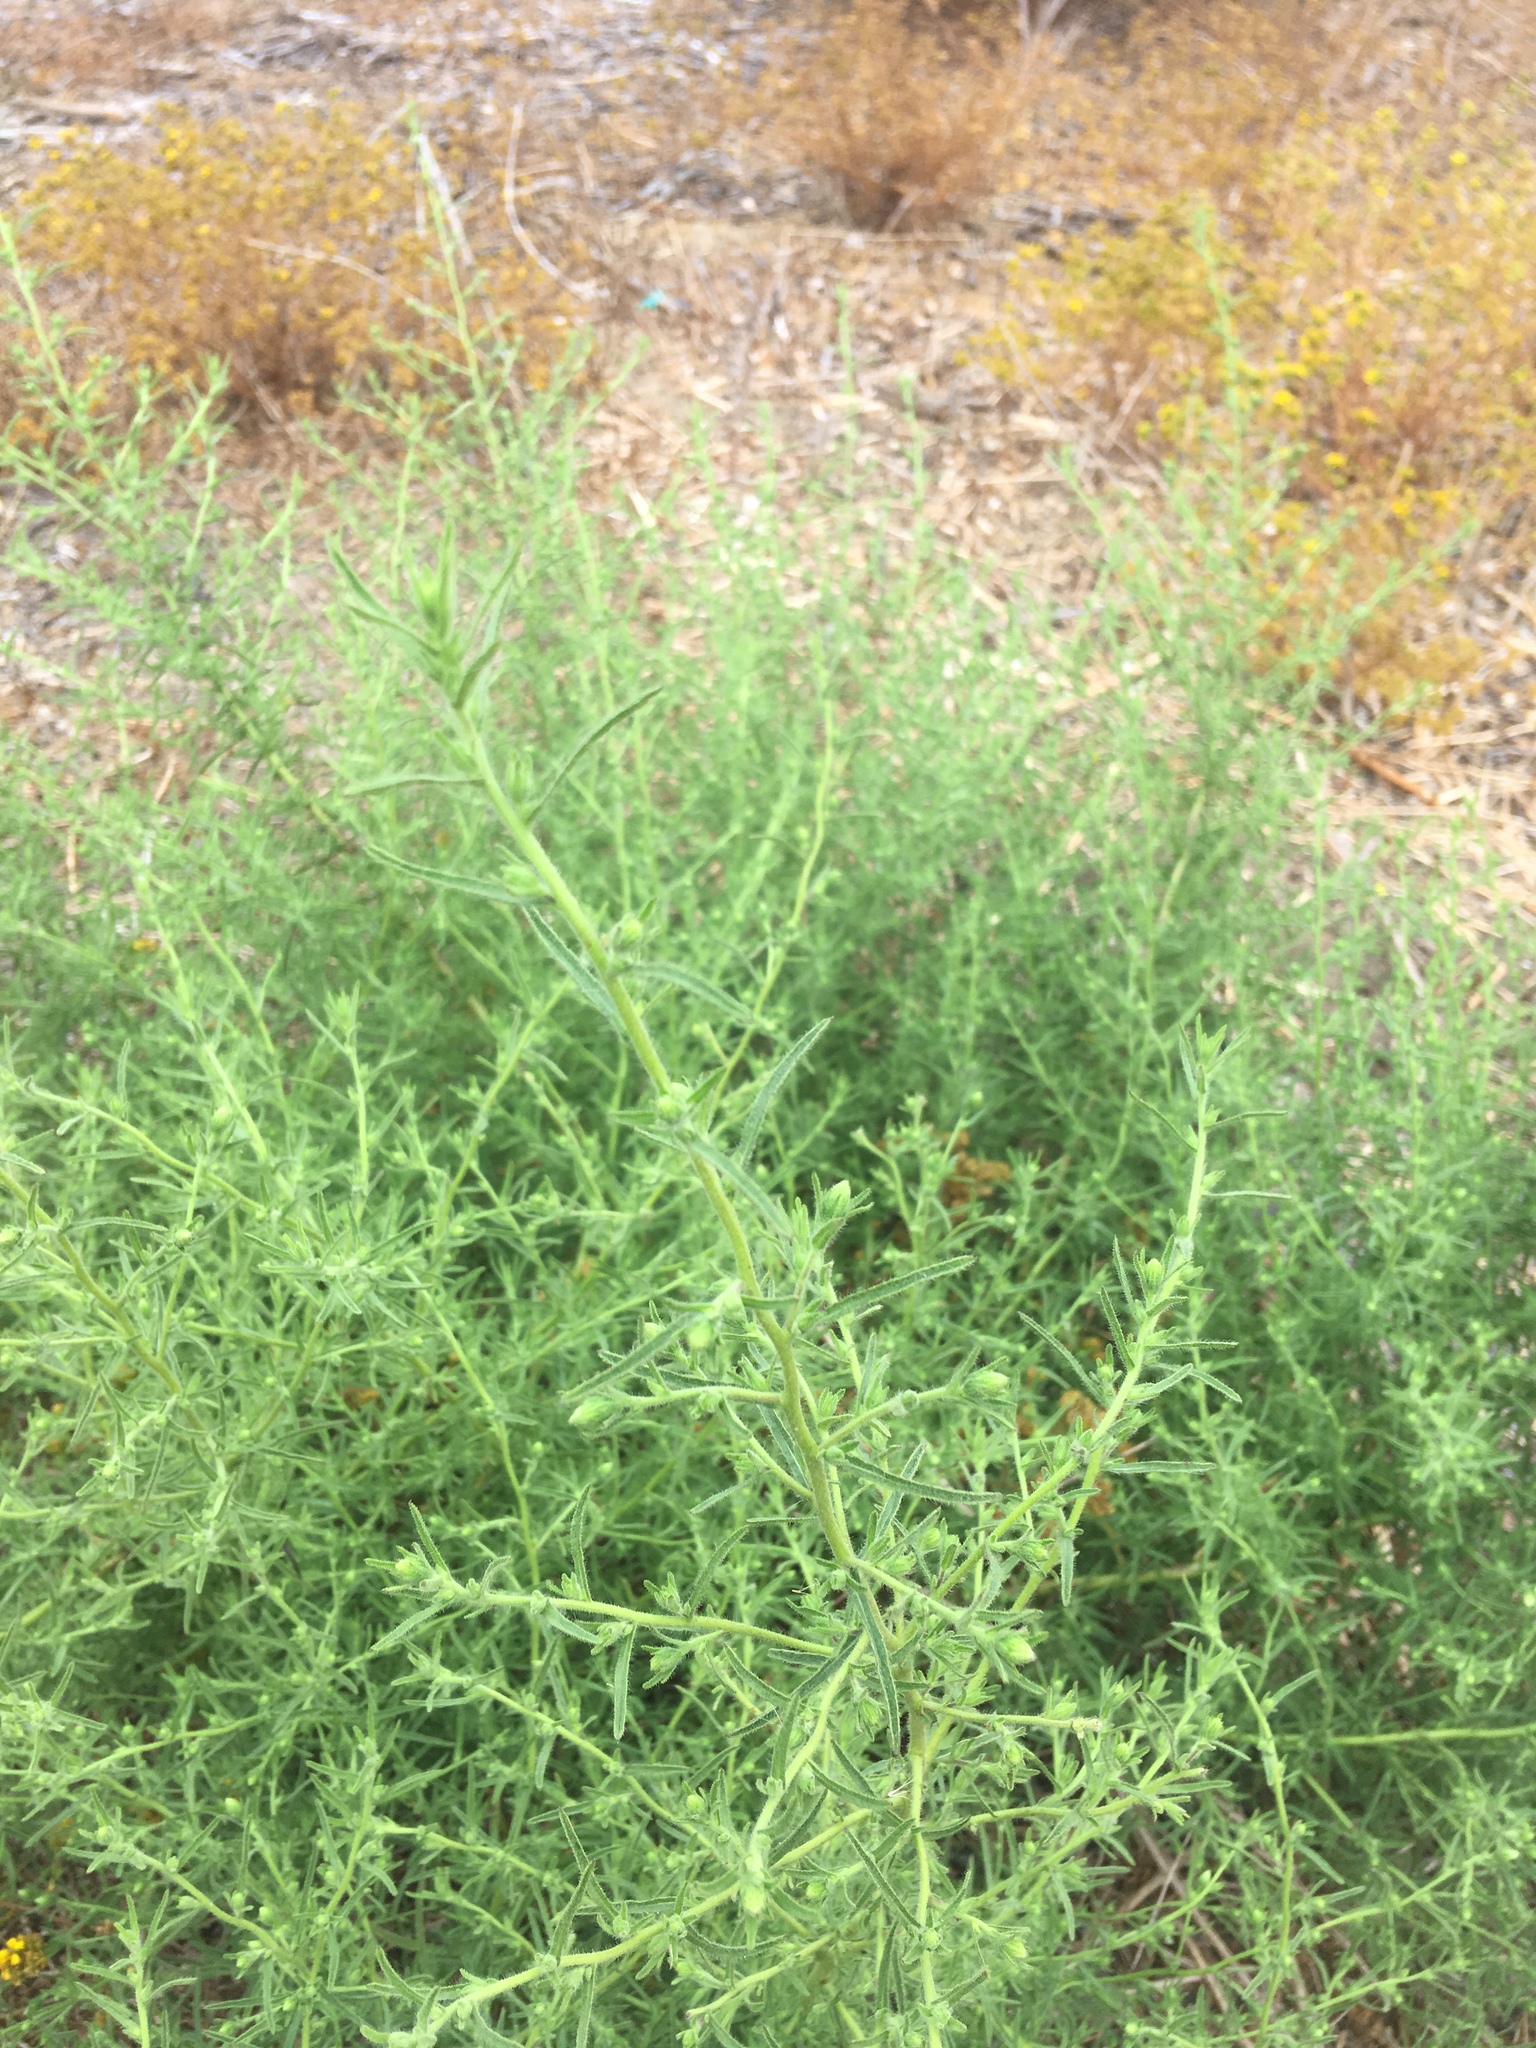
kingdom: Plantae
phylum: Tracheophyta
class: Magnoliopsida
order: Asterales
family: Asteraceae
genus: Dittrichia
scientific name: Dittrichia graveolens
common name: Stinking fleabane
